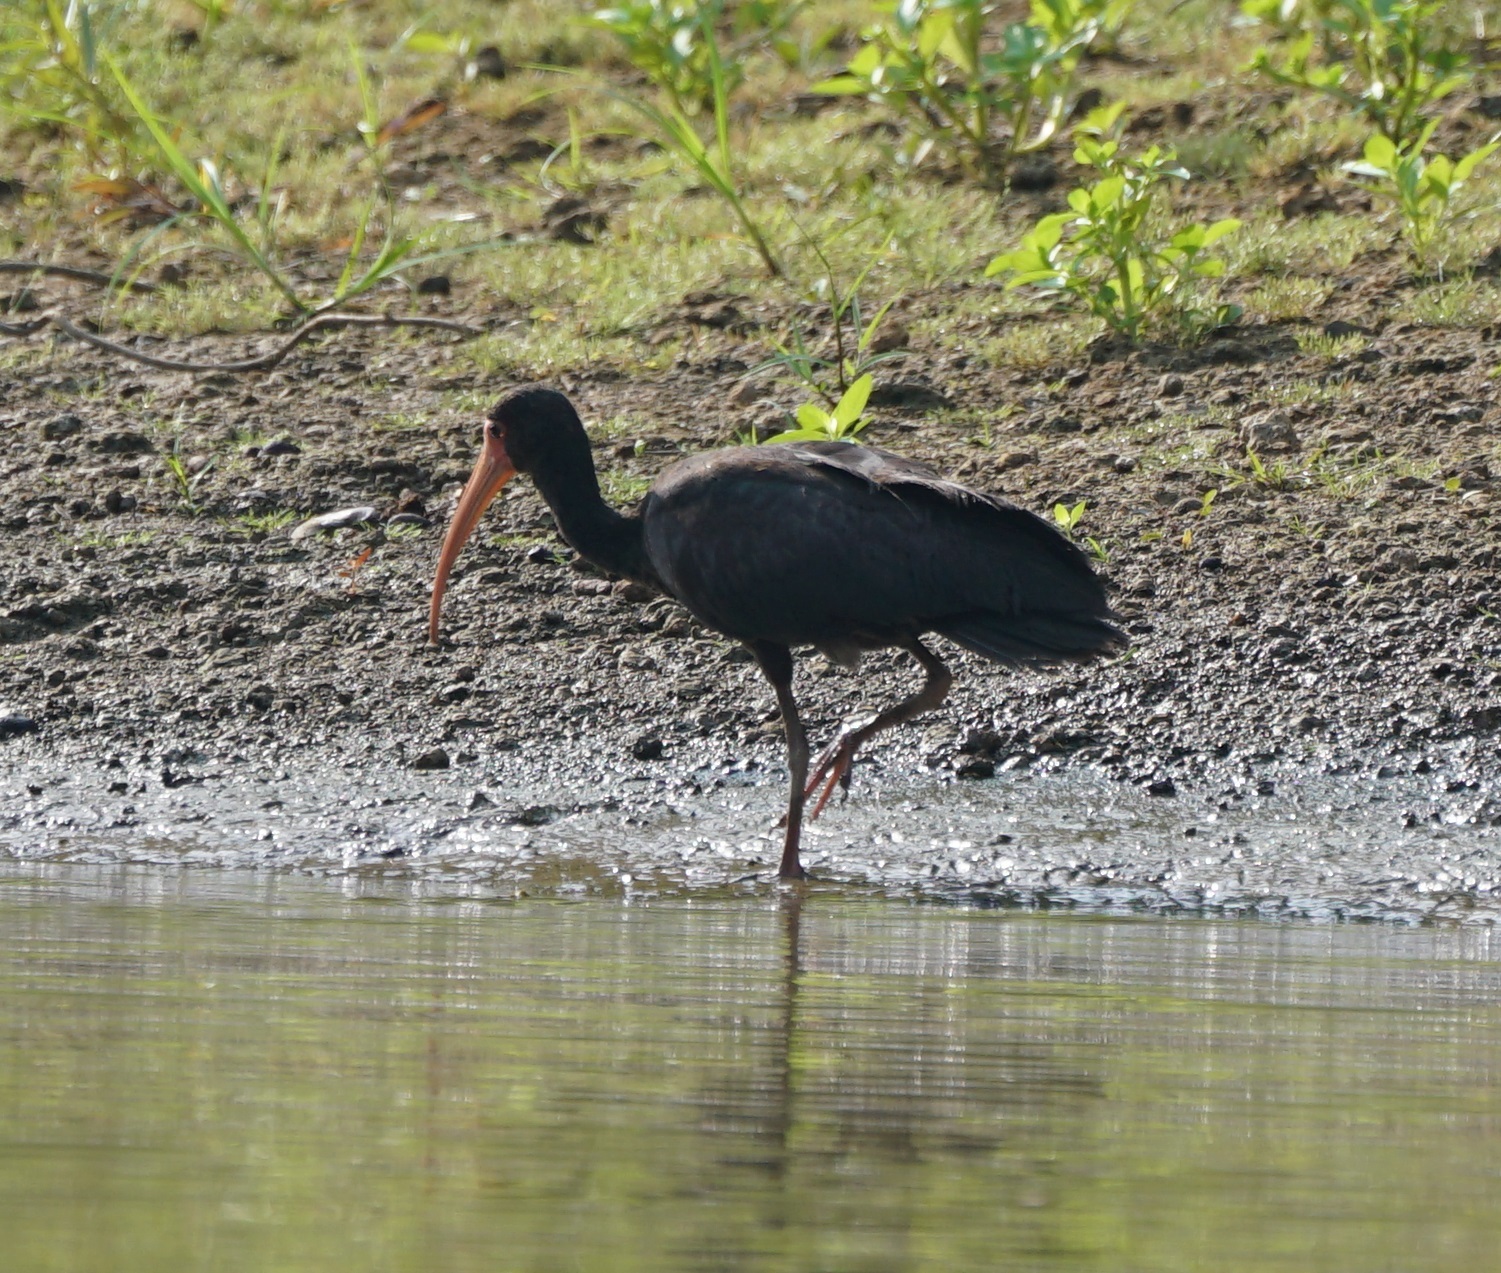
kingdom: Animalia
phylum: Chordata
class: Aves
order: Pelecaniformes
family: Threskiornithidae
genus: Phimosus
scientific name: Phimosus infuscatus
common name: Bare-faced ibis
